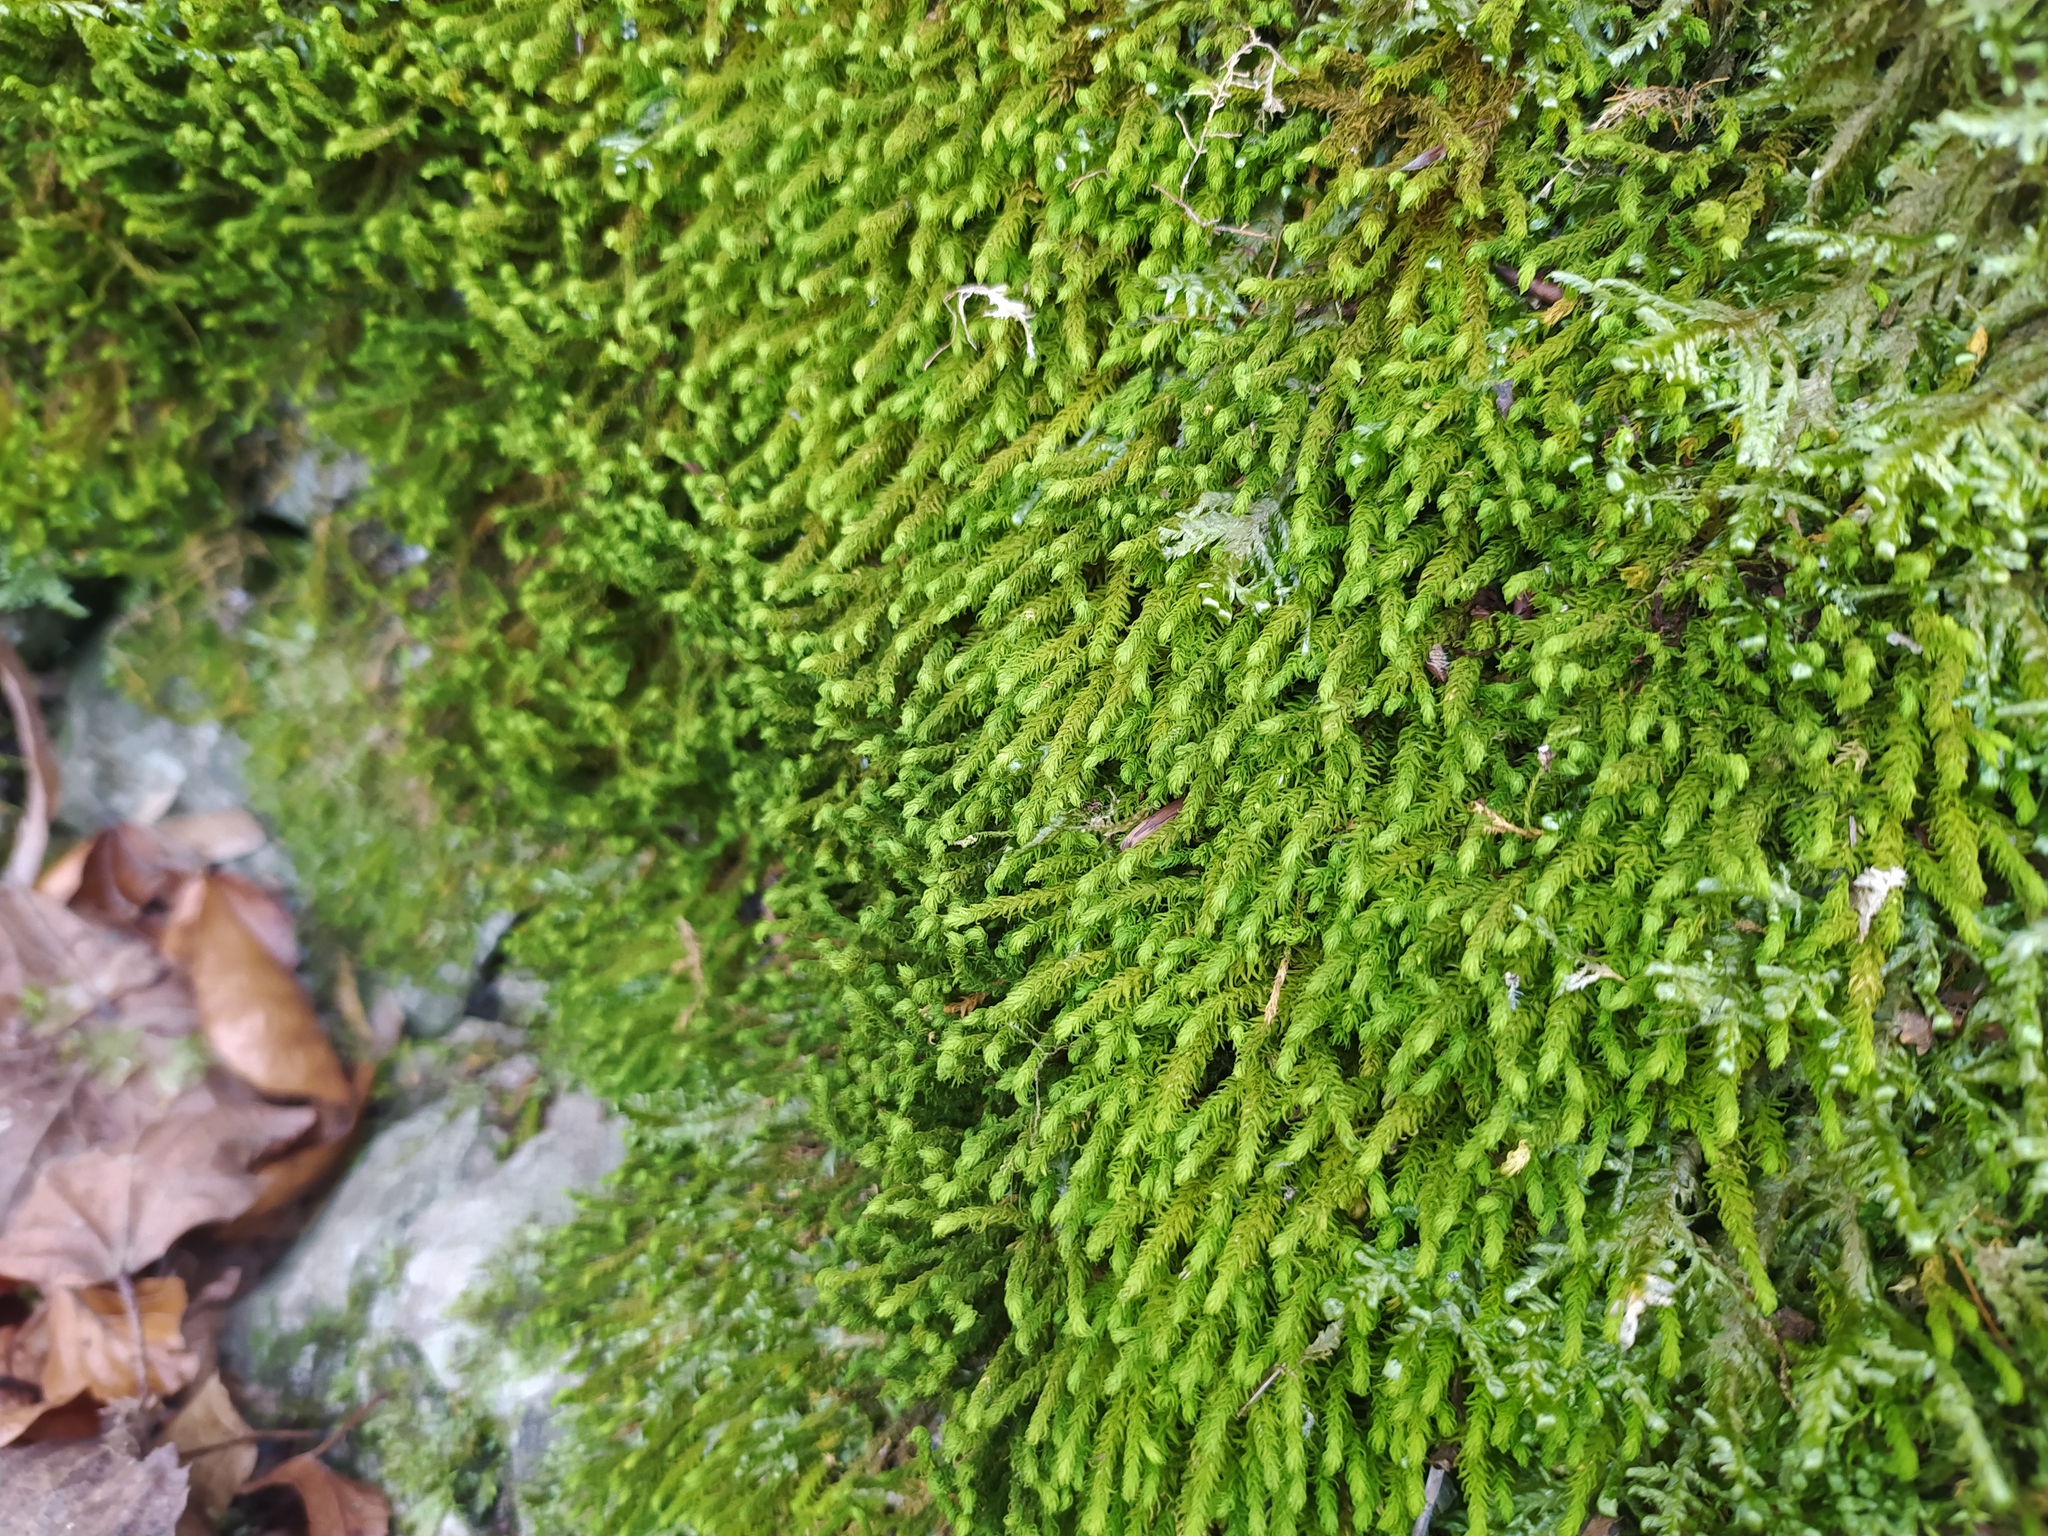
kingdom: Plantae
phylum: Bryophyta
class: Bryopsida
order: Hypnales
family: Anomodontaceae
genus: Anomodon
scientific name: Anomodon viticulosus
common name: Tall anomodon
